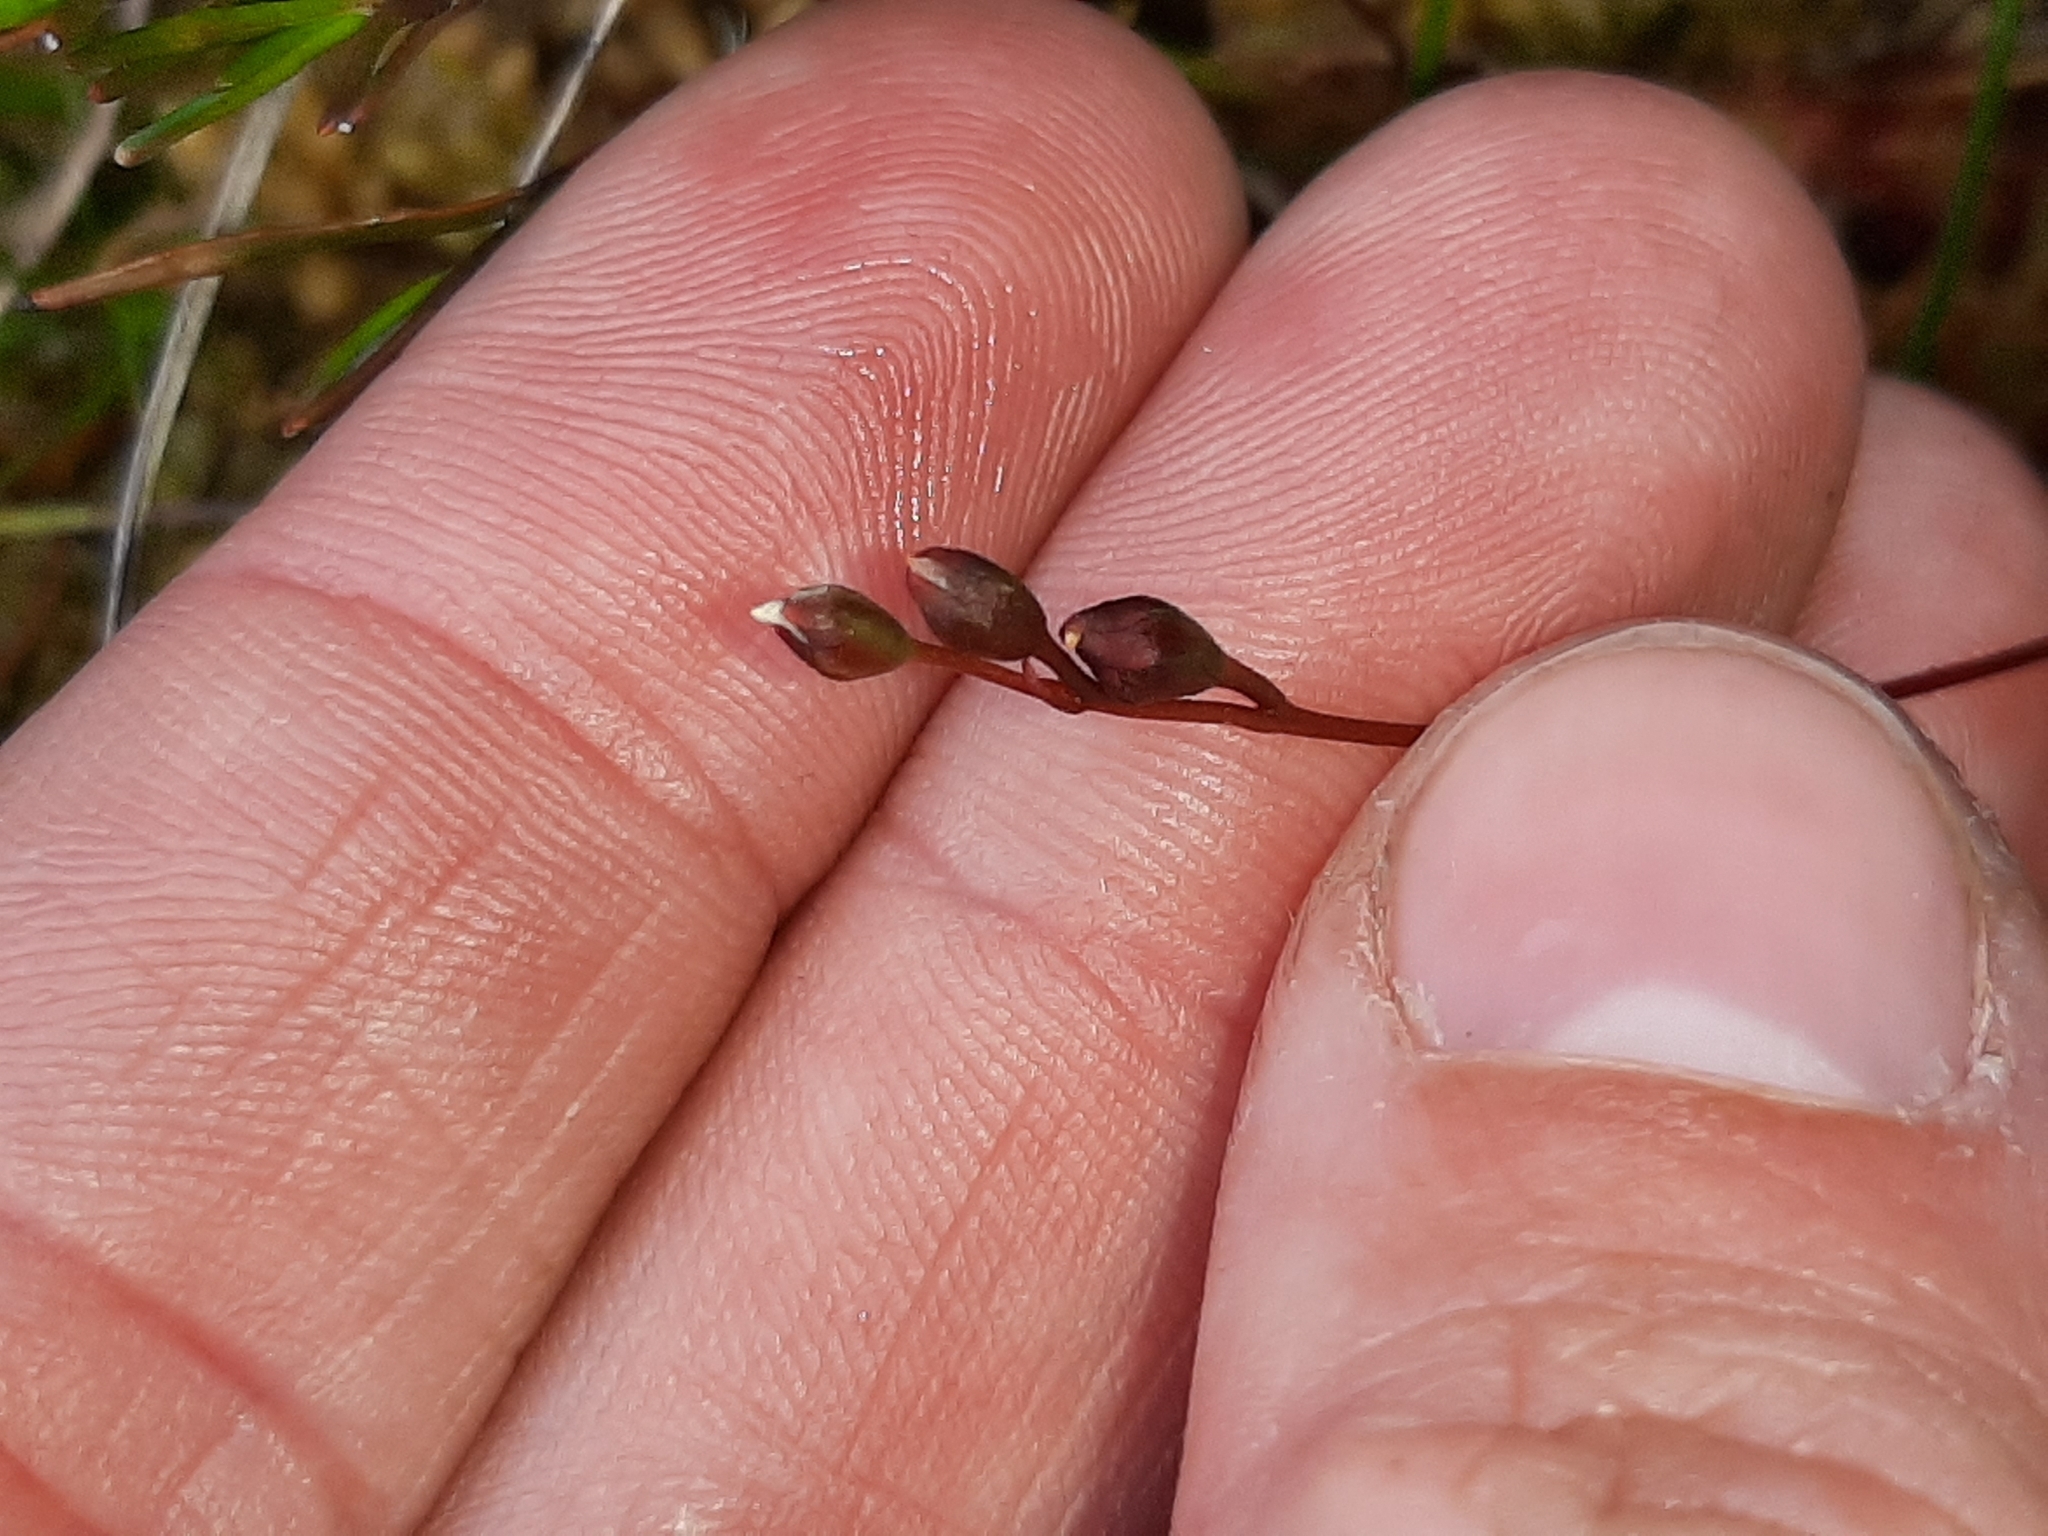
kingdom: Plantae
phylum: Tracheophyta
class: Magnoliopsida
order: Caryophyllales
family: Droseraceae
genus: Drosera
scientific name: Drosera spatulata
